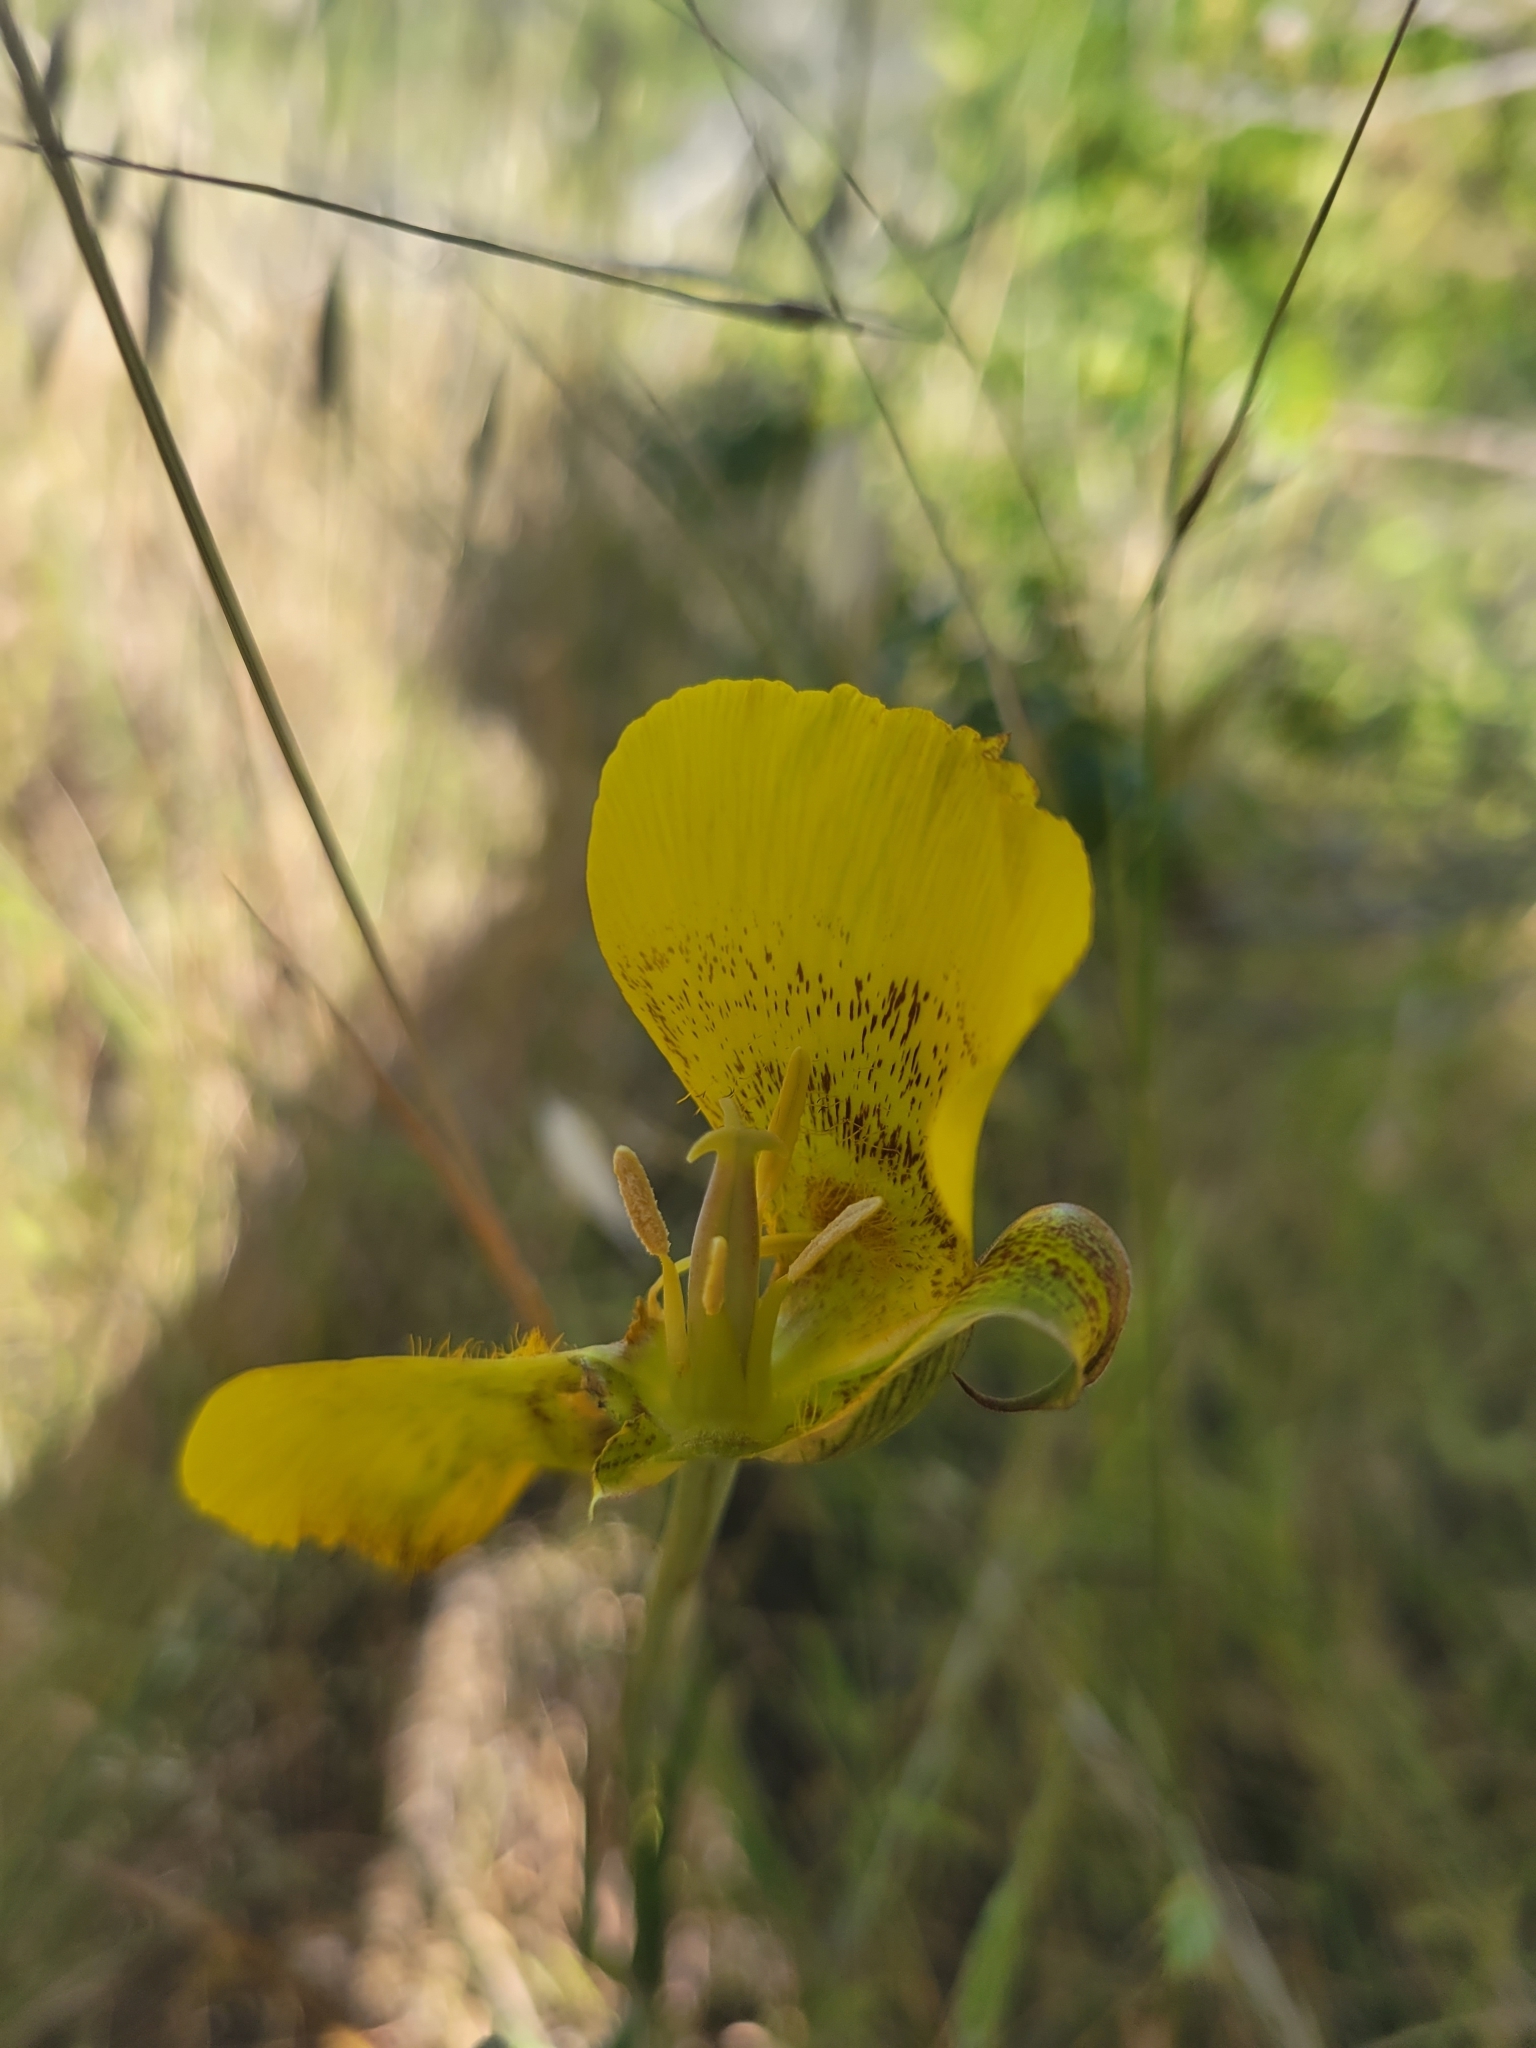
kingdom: Plantae
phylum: Tracheophyta
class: Liliopsida
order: Liliales
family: Liliaceae
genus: Calochortus
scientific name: Calochortus luteus
